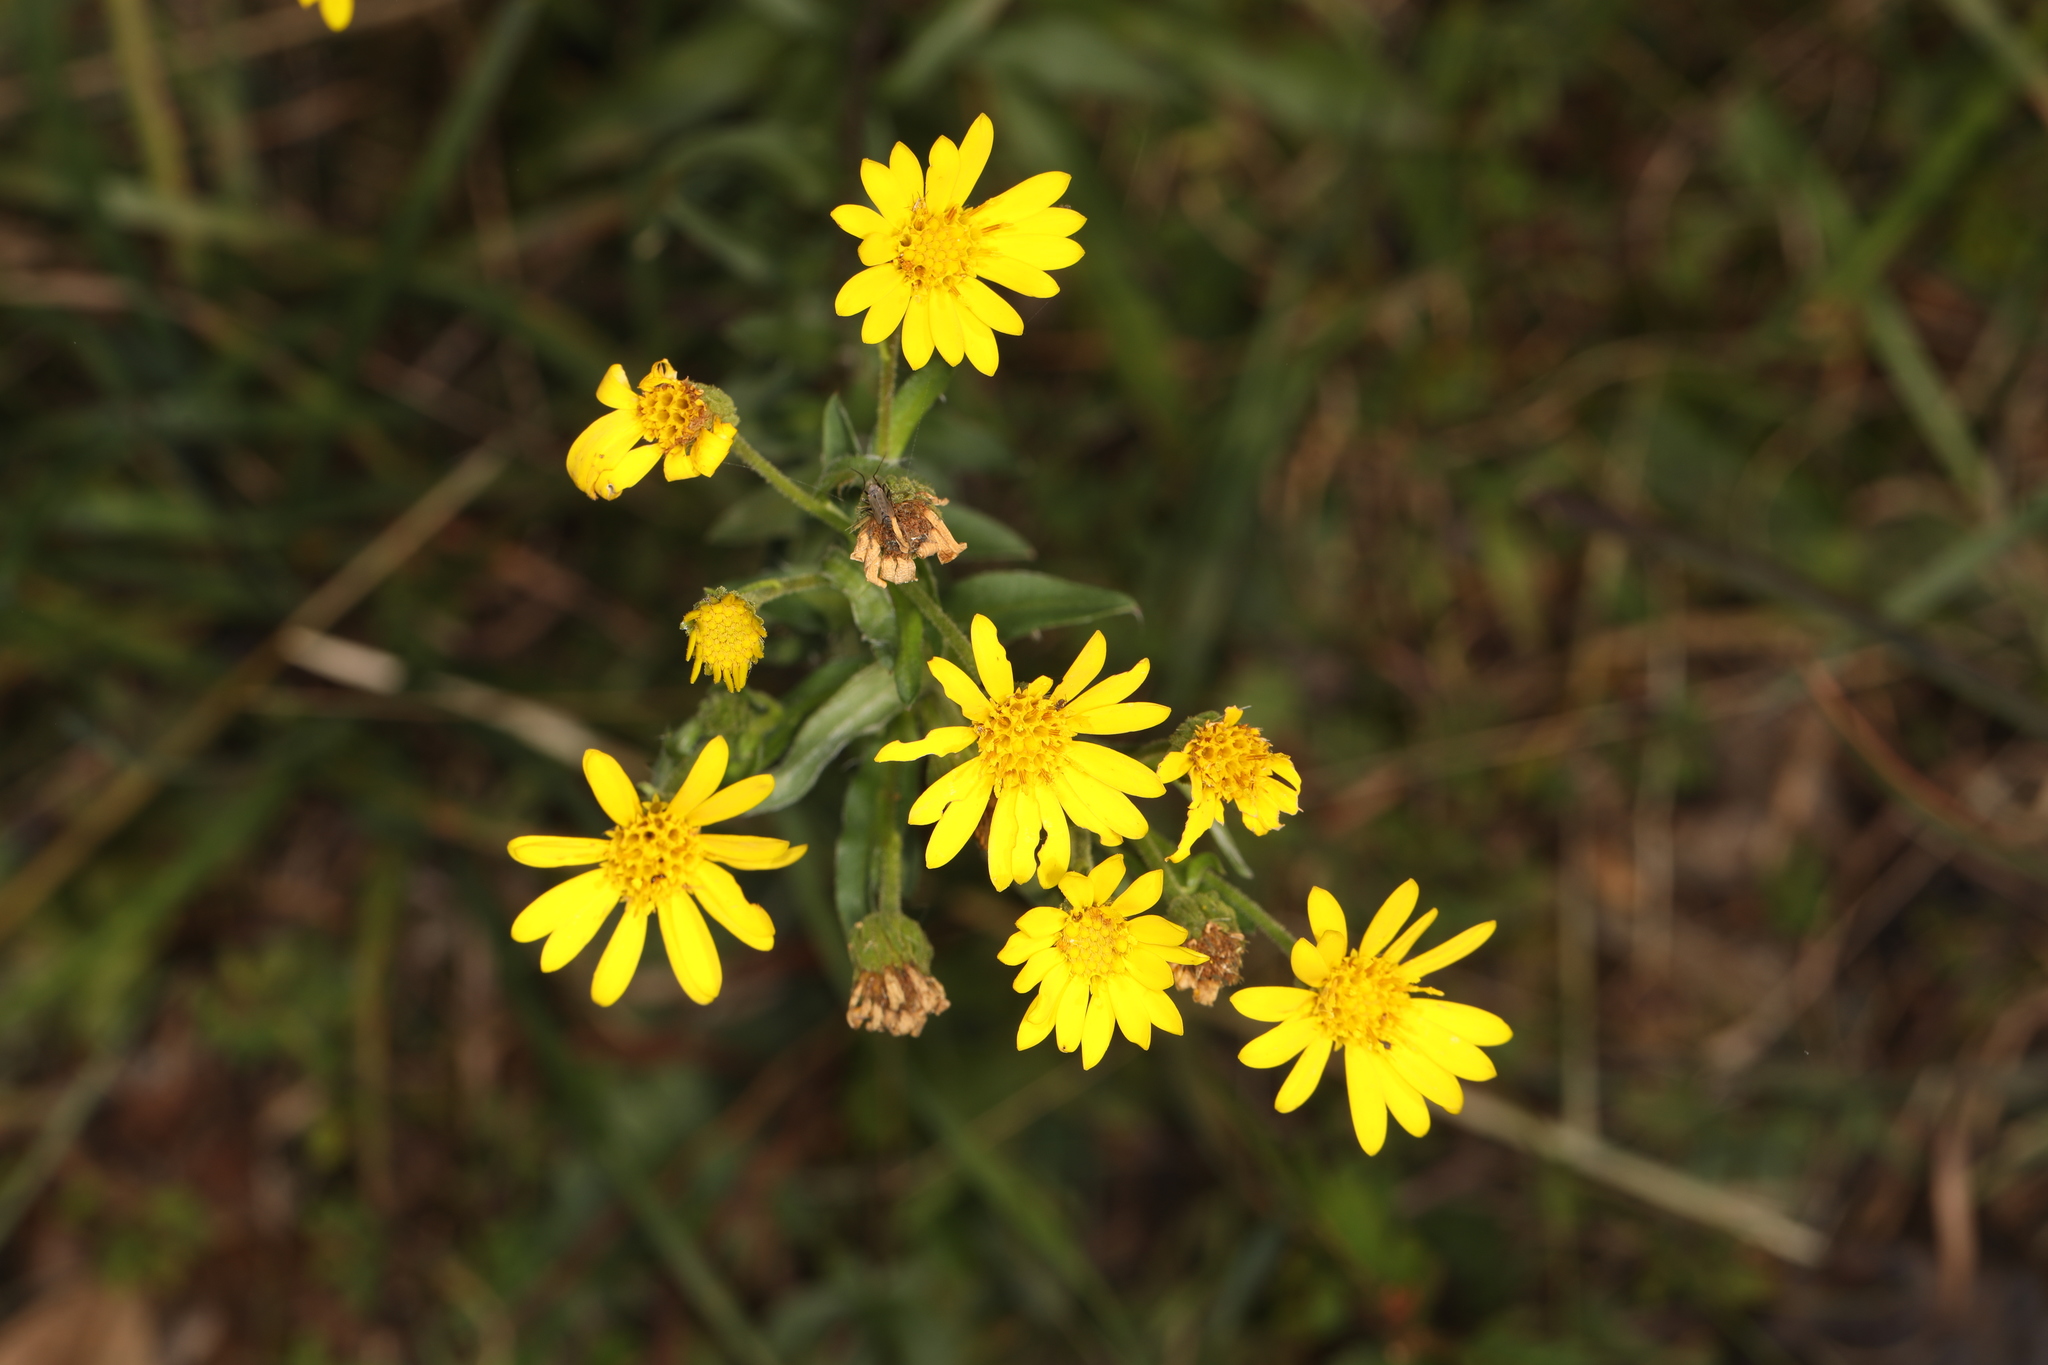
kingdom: Plantae
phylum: Tracheophyta
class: Magnoliopsida
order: Asterales
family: Asteraceae
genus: Chrysopsis
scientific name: Chrysopsis mariana
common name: Maryland golden-aster
